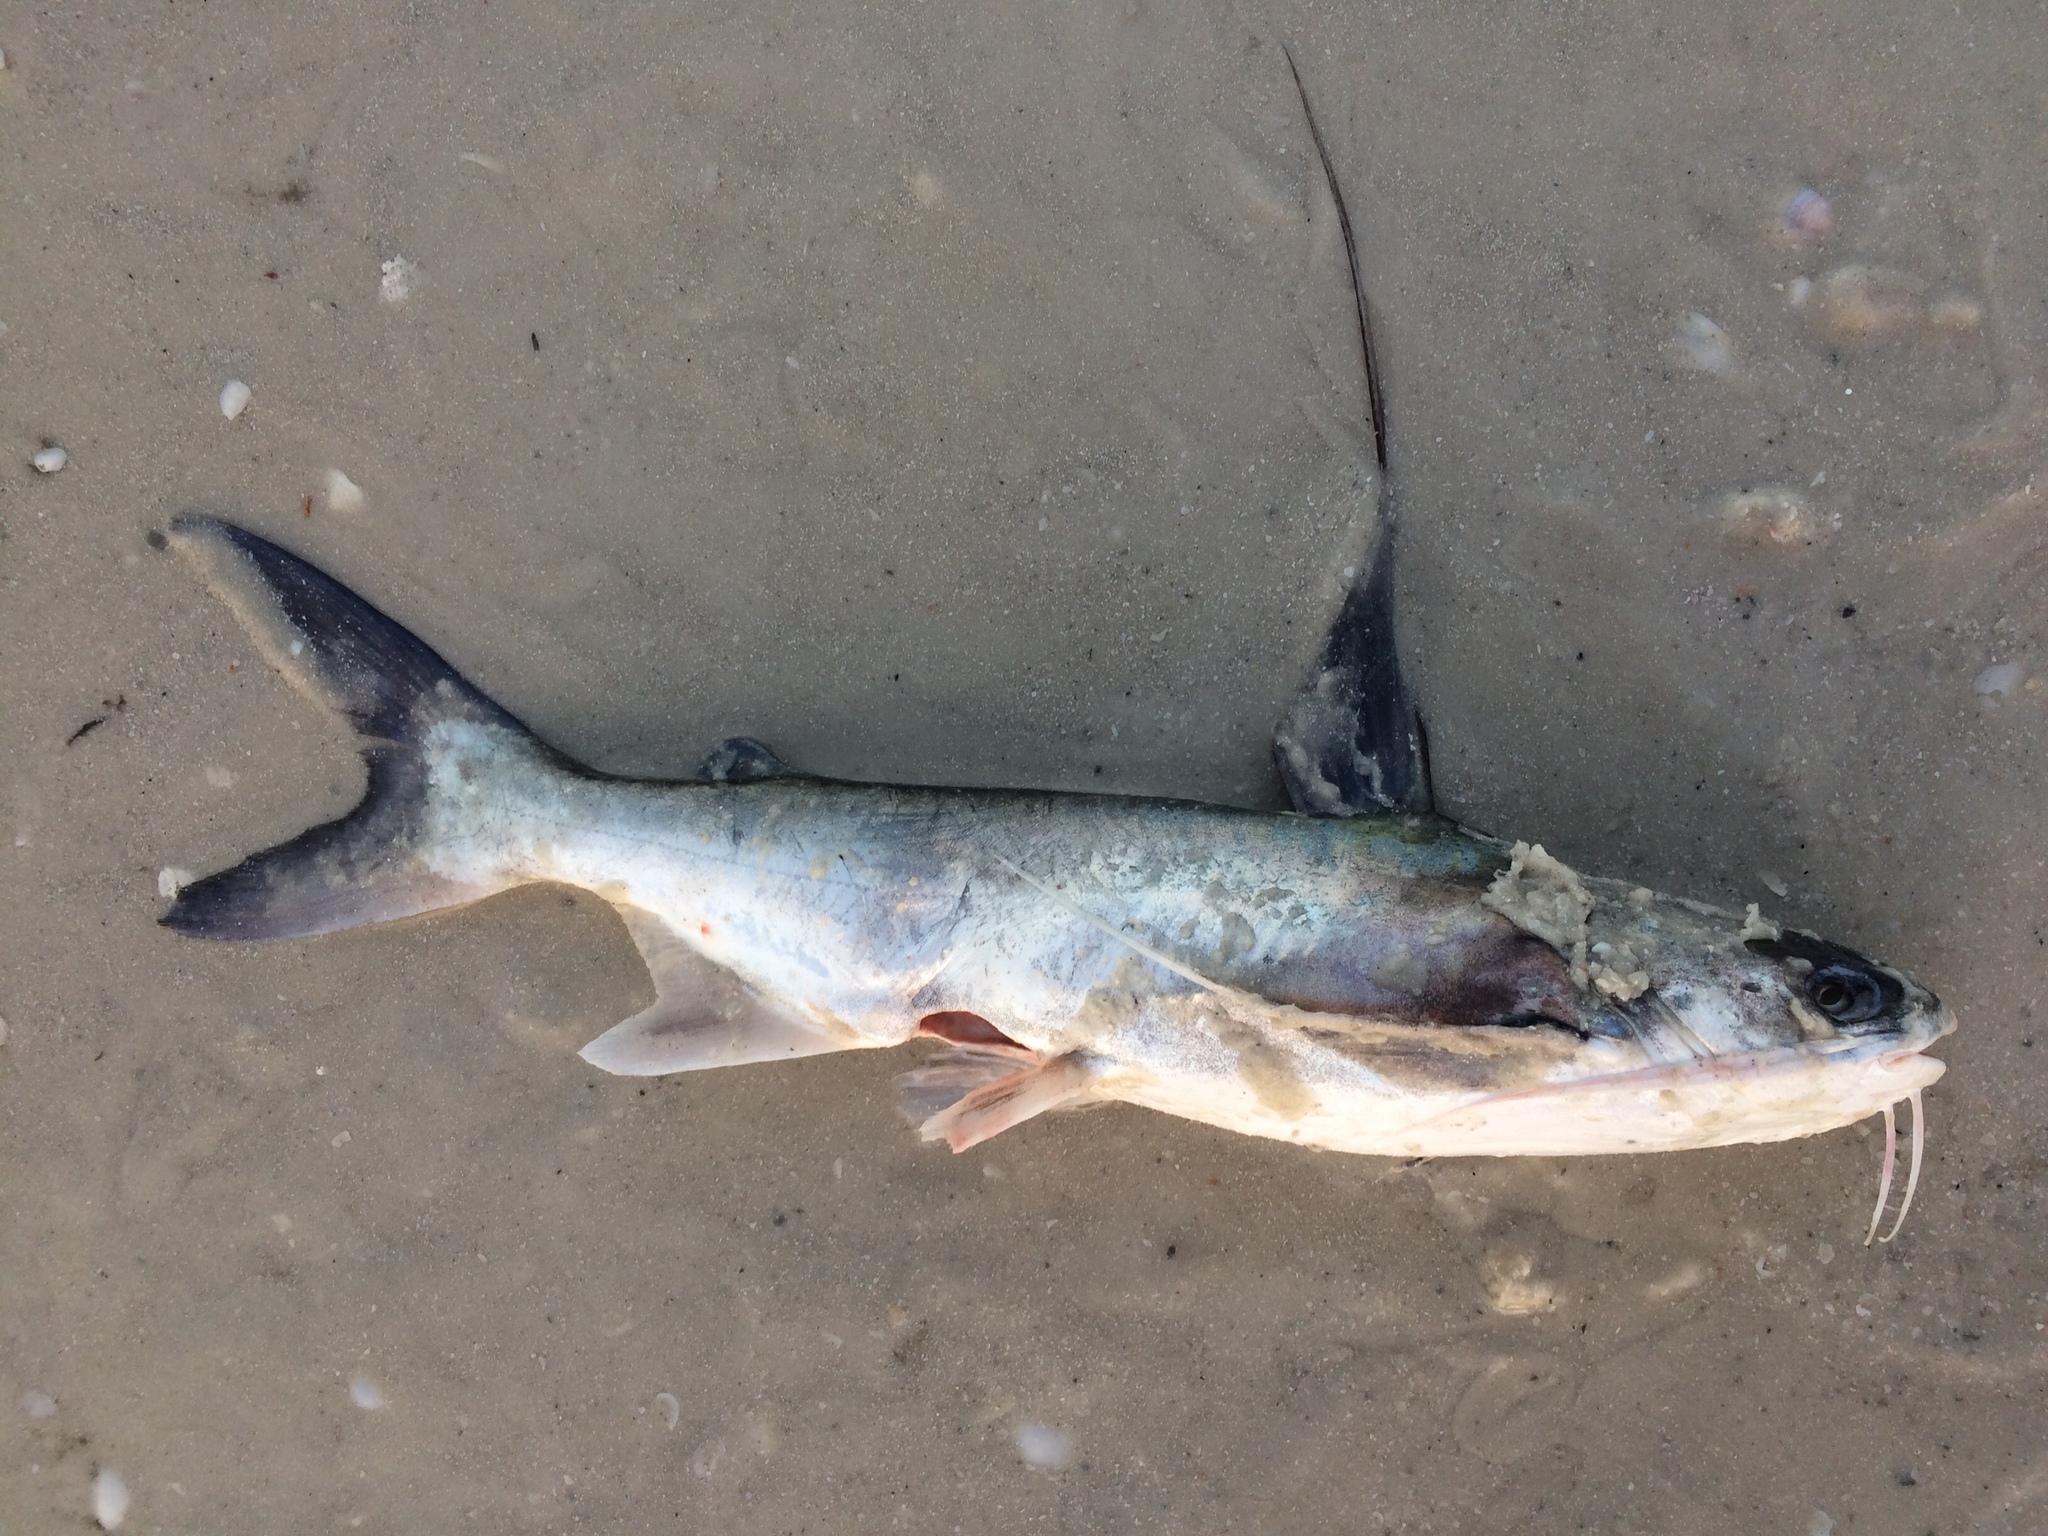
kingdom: Animalia
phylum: Chordata
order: Siluriformes
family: Ariidae
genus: Bagre
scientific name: Bagre marinus
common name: Gafftopsail sea catfish
